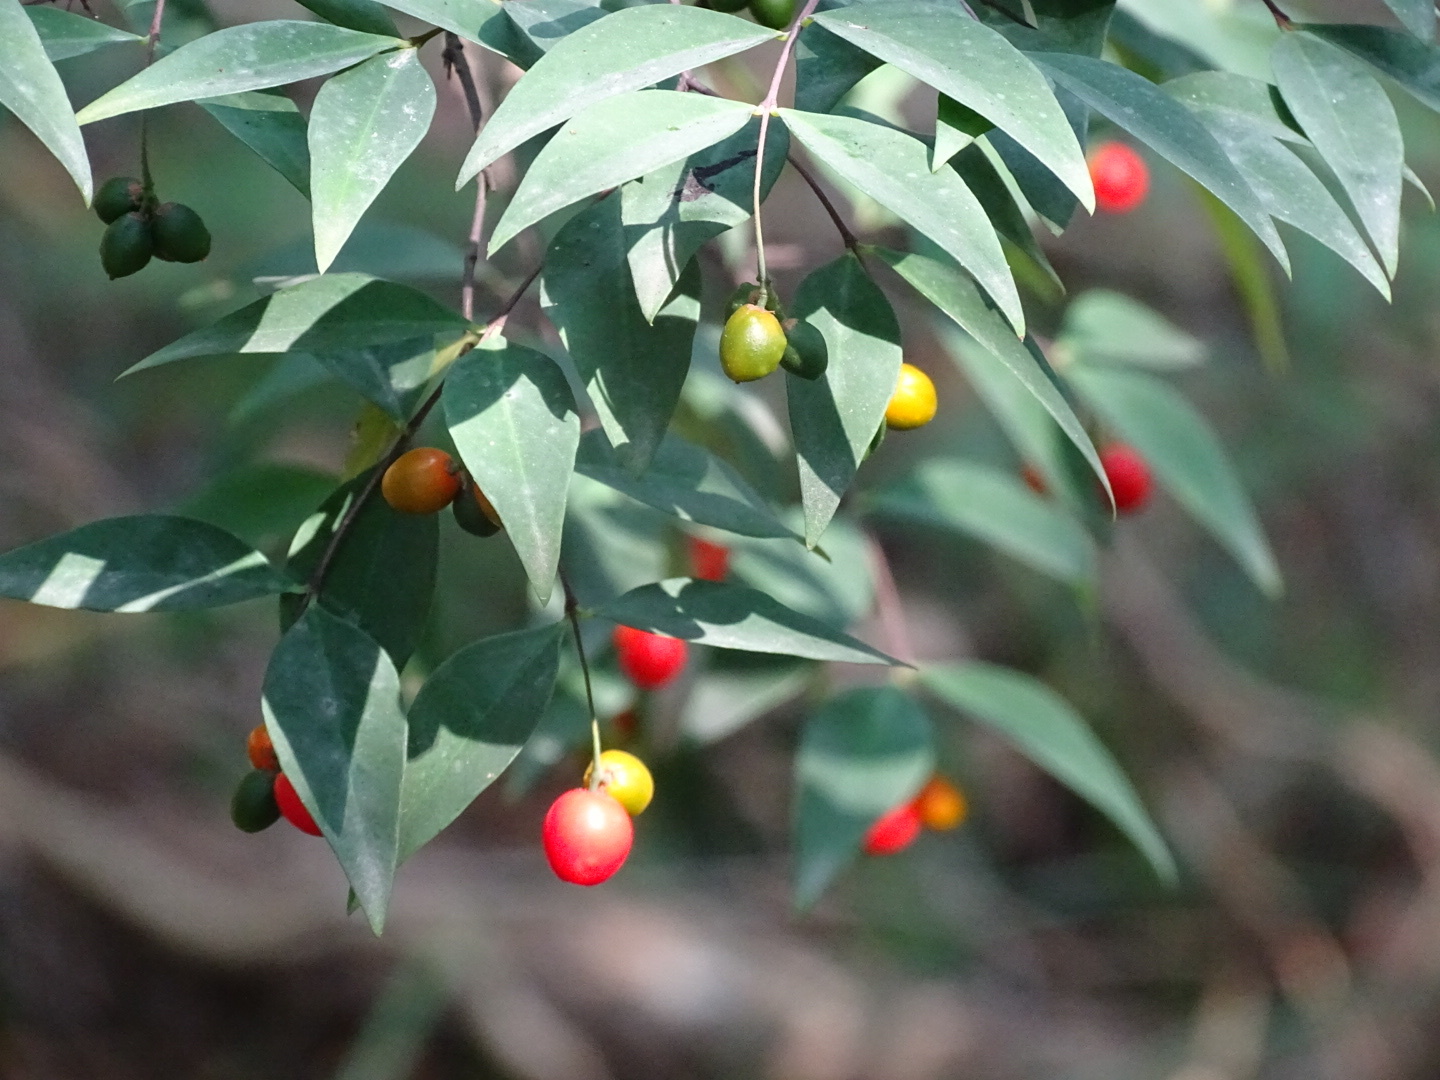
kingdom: Plantae
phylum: Tracheophyta
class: Magnoliopsida
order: Malvales
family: Thymelaeaceae
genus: Wikstroemia
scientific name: Wikstroemia nutans
